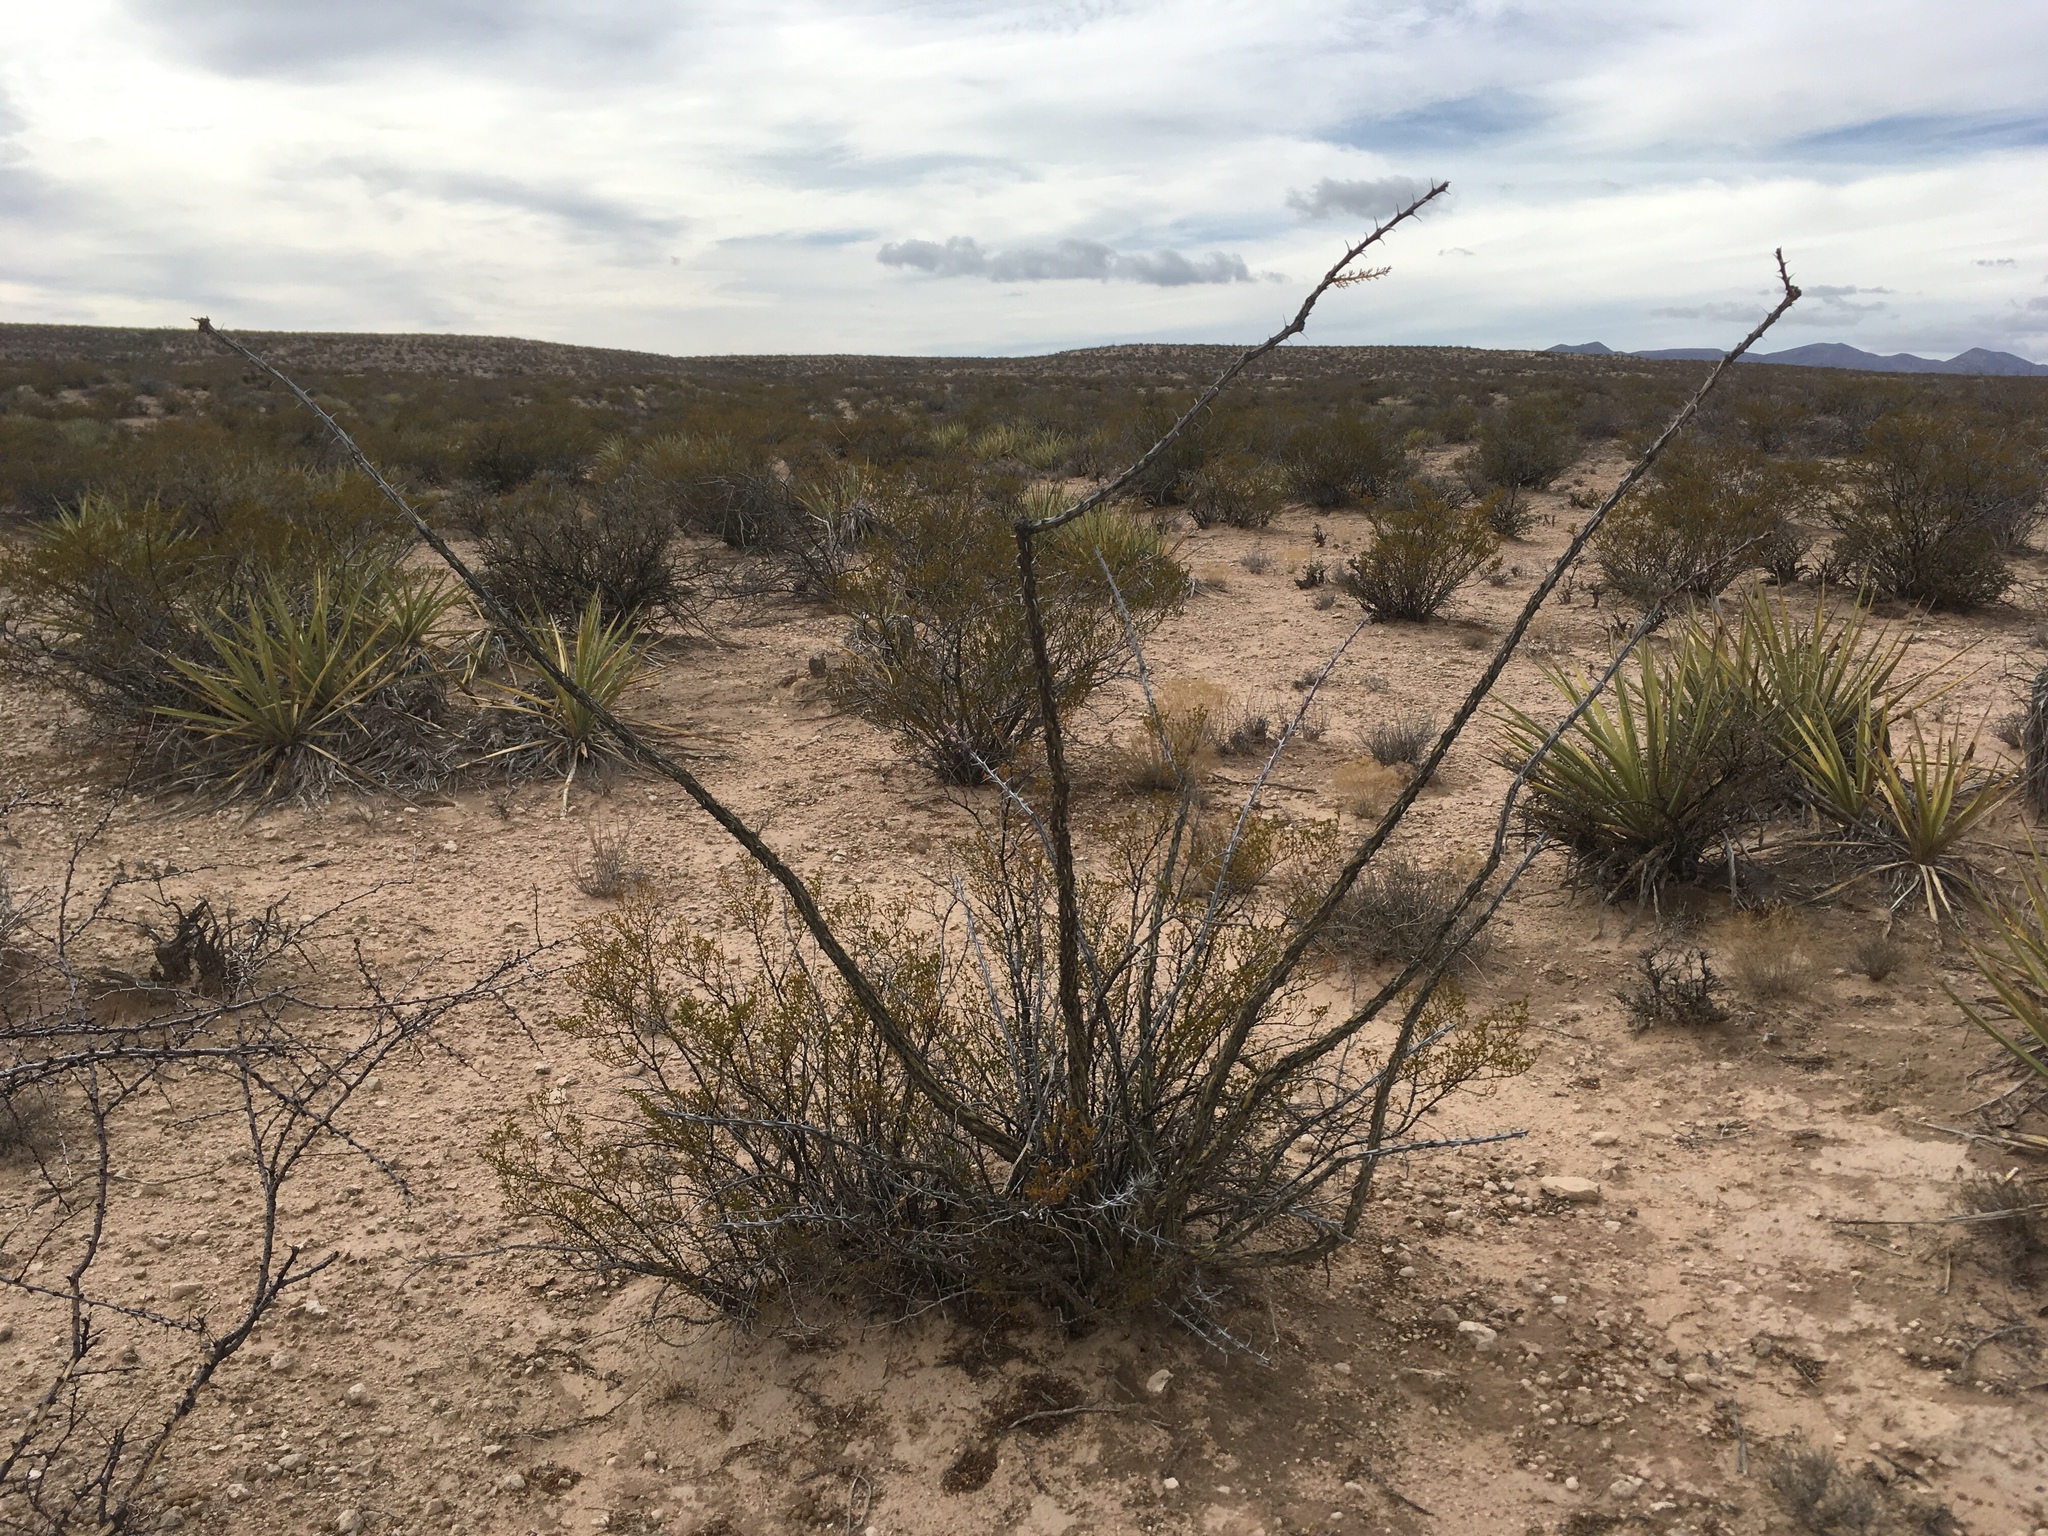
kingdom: Plantae
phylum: Tracheophyta
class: Magnoliopsida
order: Ericales
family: Fouquieriaceae
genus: Fouquieria
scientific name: Fouquieria splendens
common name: Vine-cactus
